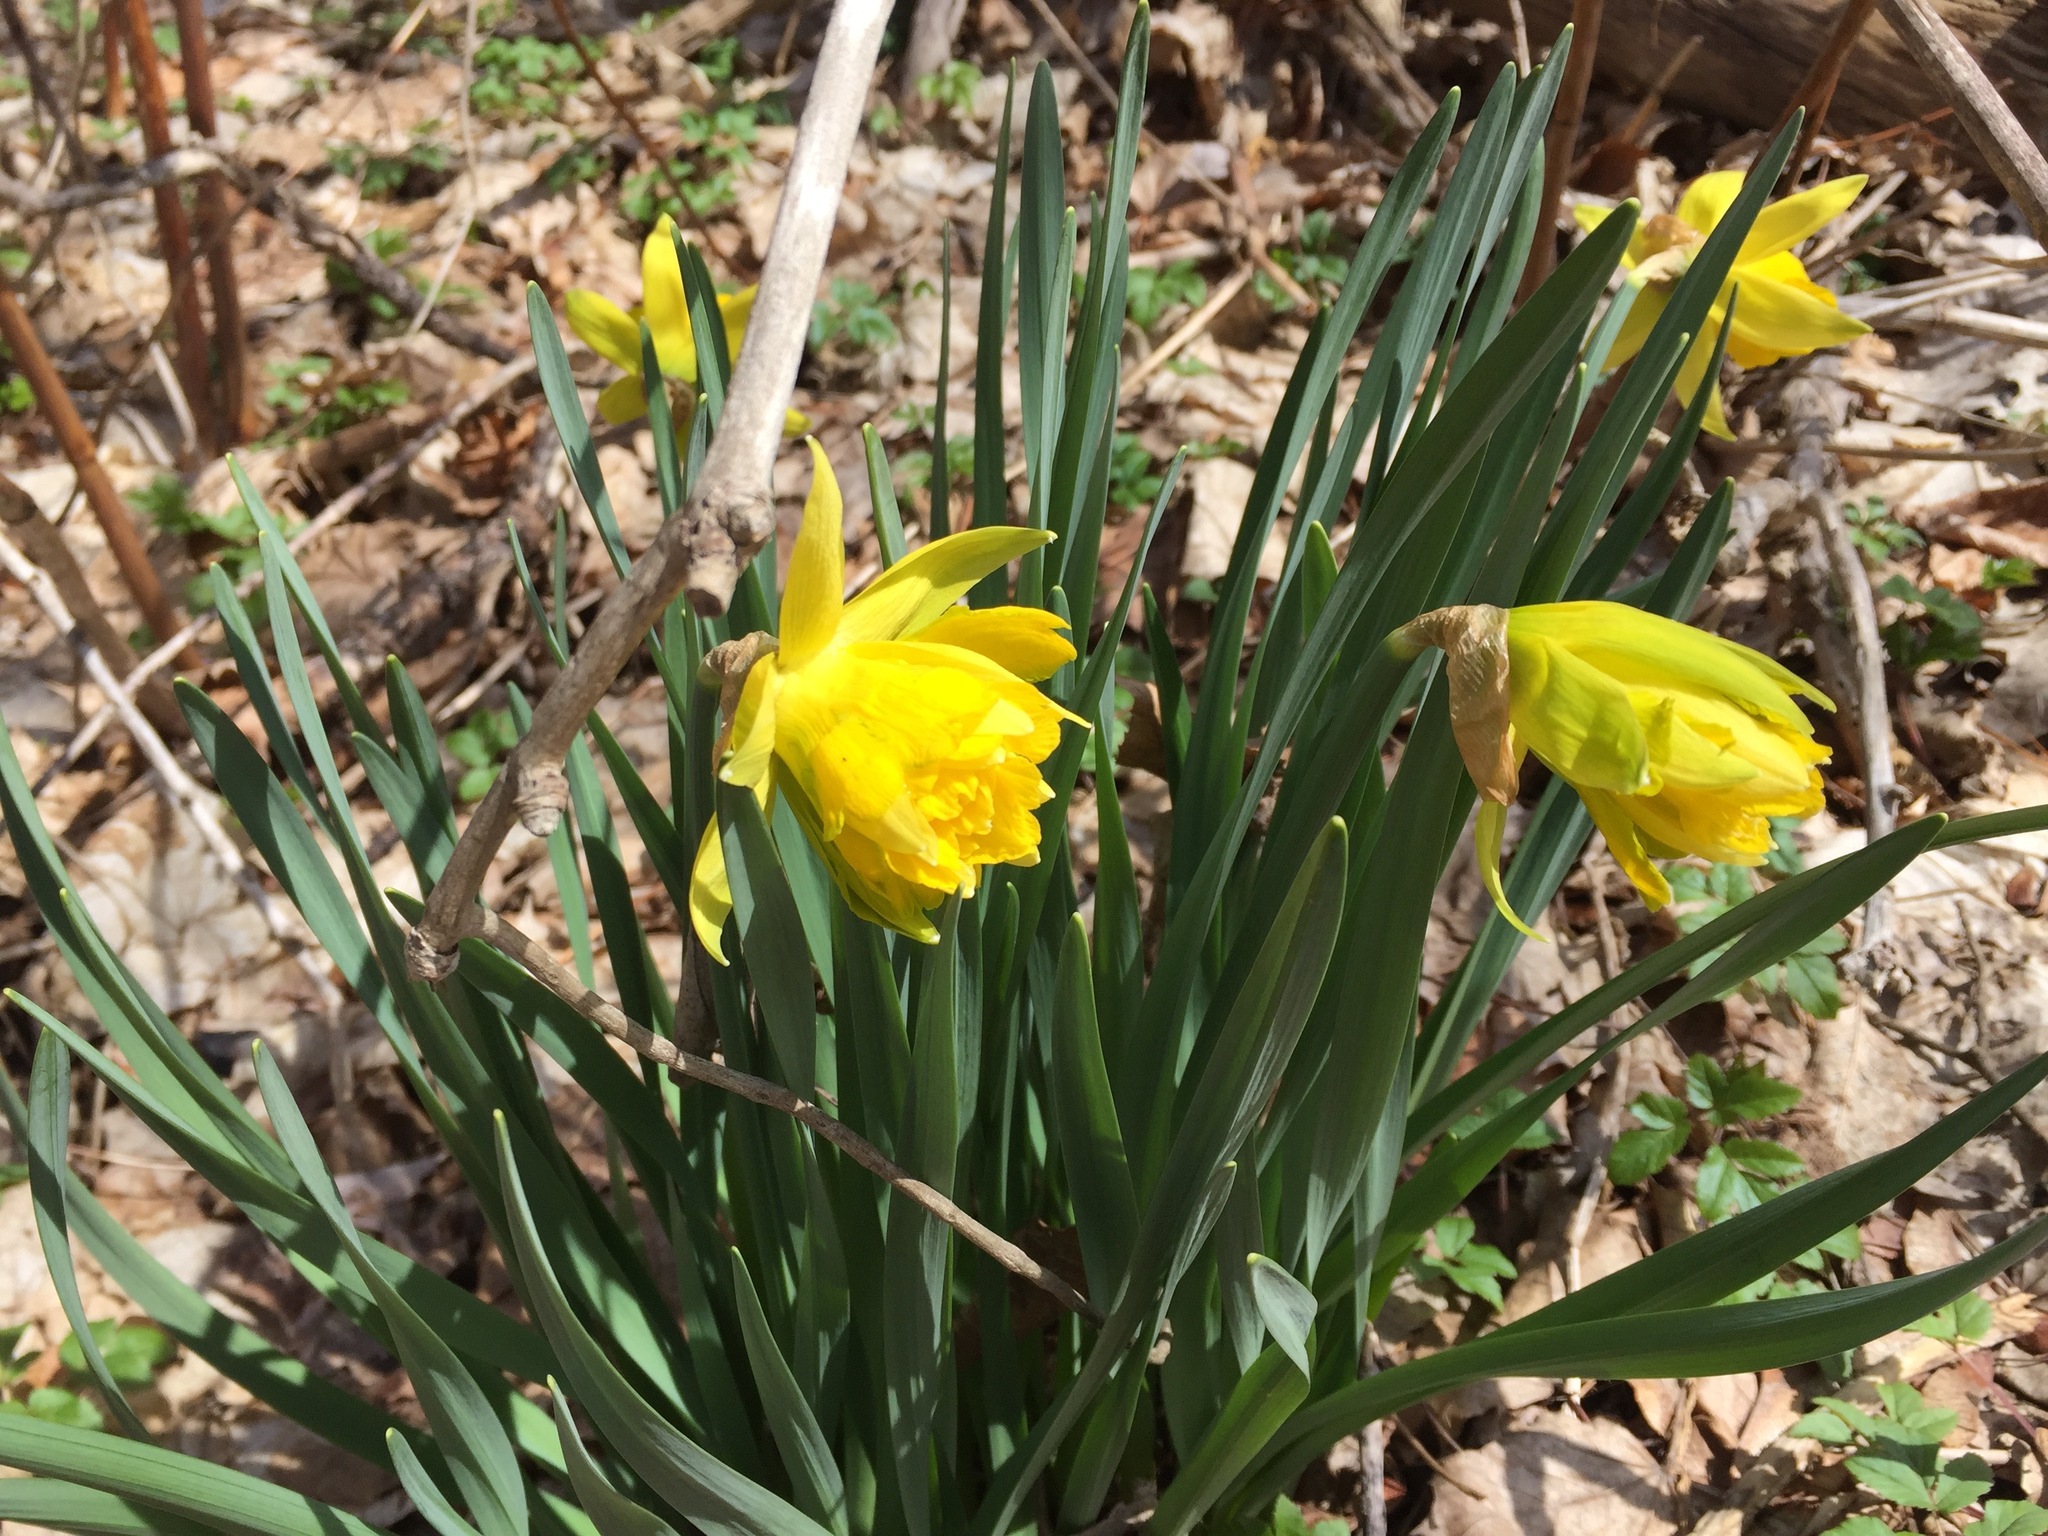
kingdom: Plantae
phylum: Tracheophyta
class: Liliopsida
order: Asparagales
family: Amaryllidaceae
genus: Narcissus
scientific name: Narcissus
